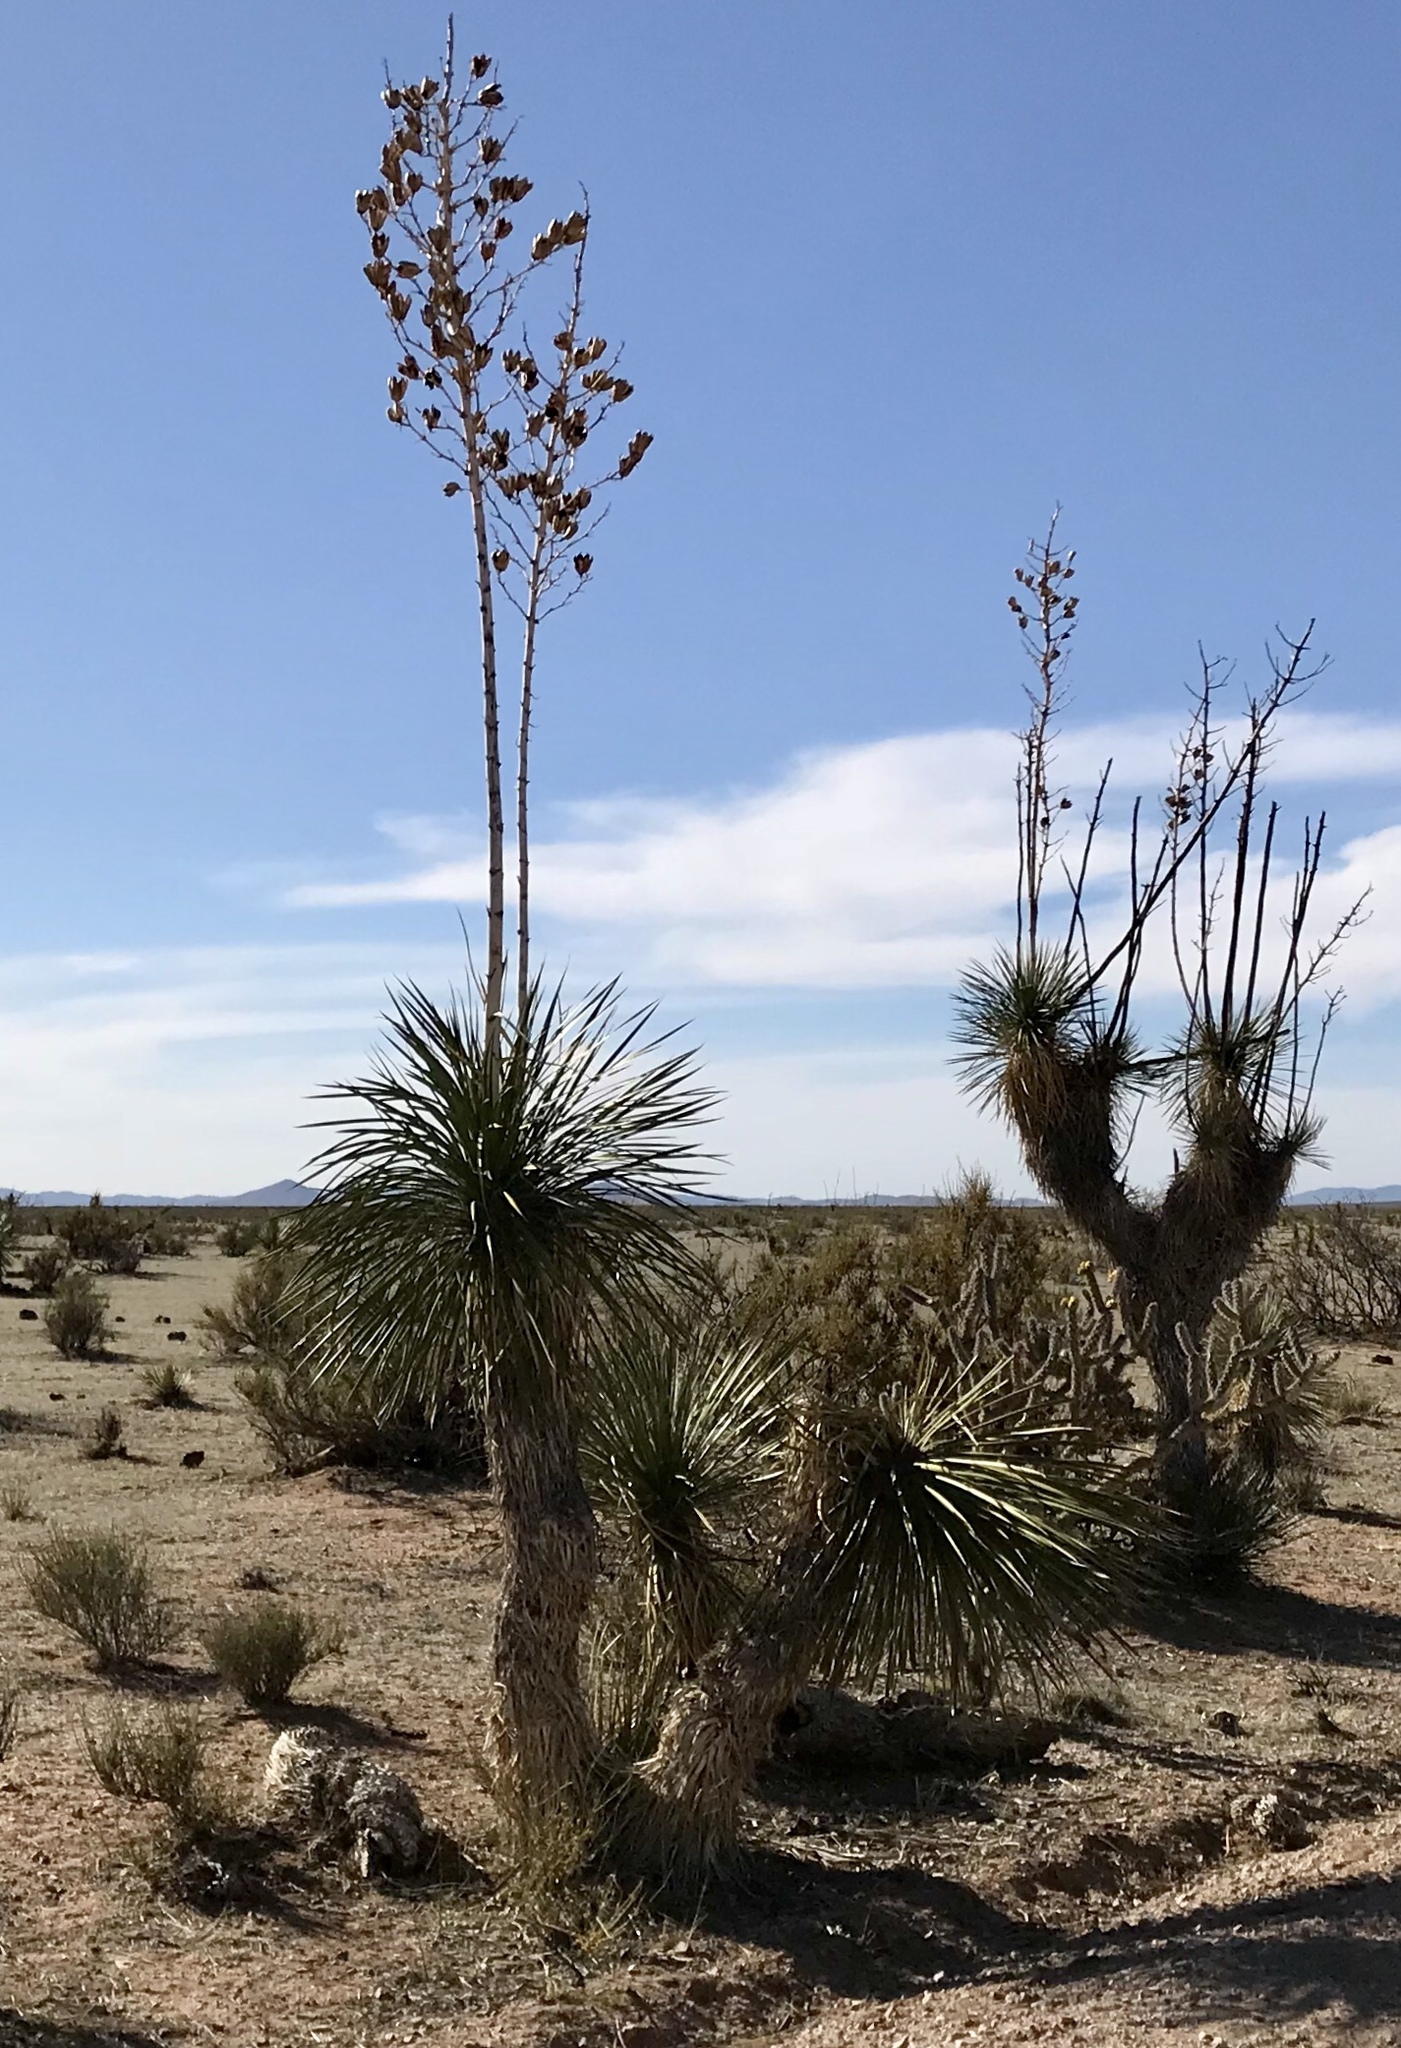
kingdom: Plantae
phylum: Tracheophyta
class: Liliopsida
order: Asparagales
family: Asparagaceae
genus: Yucca
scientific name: Yucca elata
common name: Palmella
